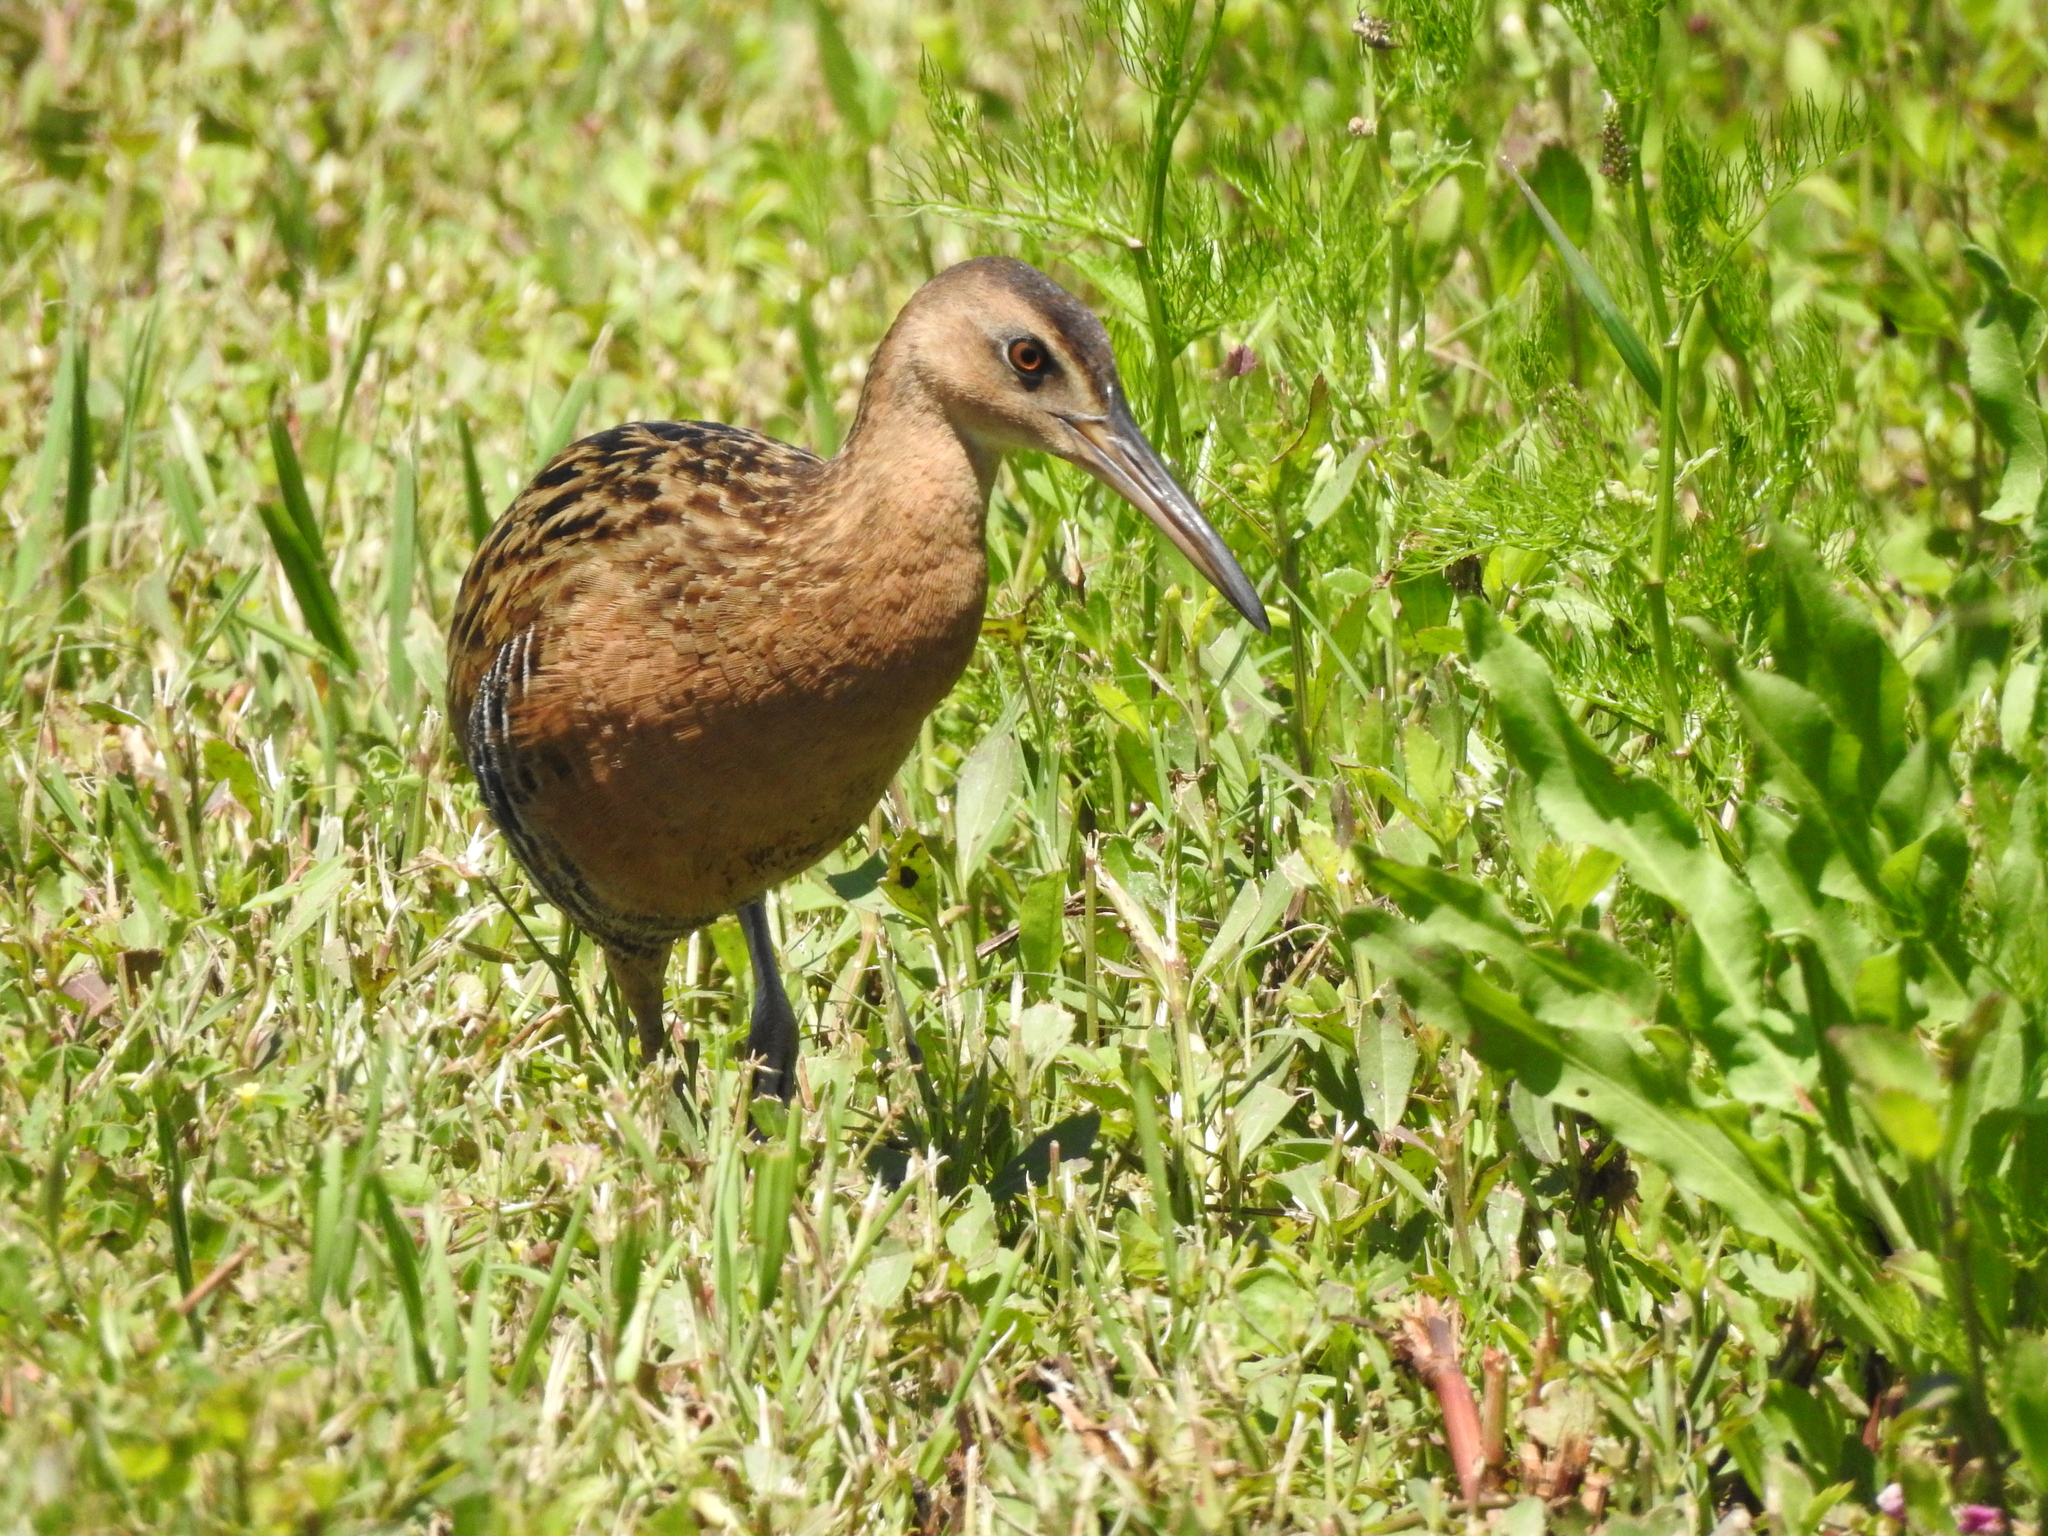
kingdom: Animalia
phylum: Chordata
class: Aves
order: Gruiformes
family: Rallidae
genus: Rallus
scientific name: Rallus elegans
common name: King rail
